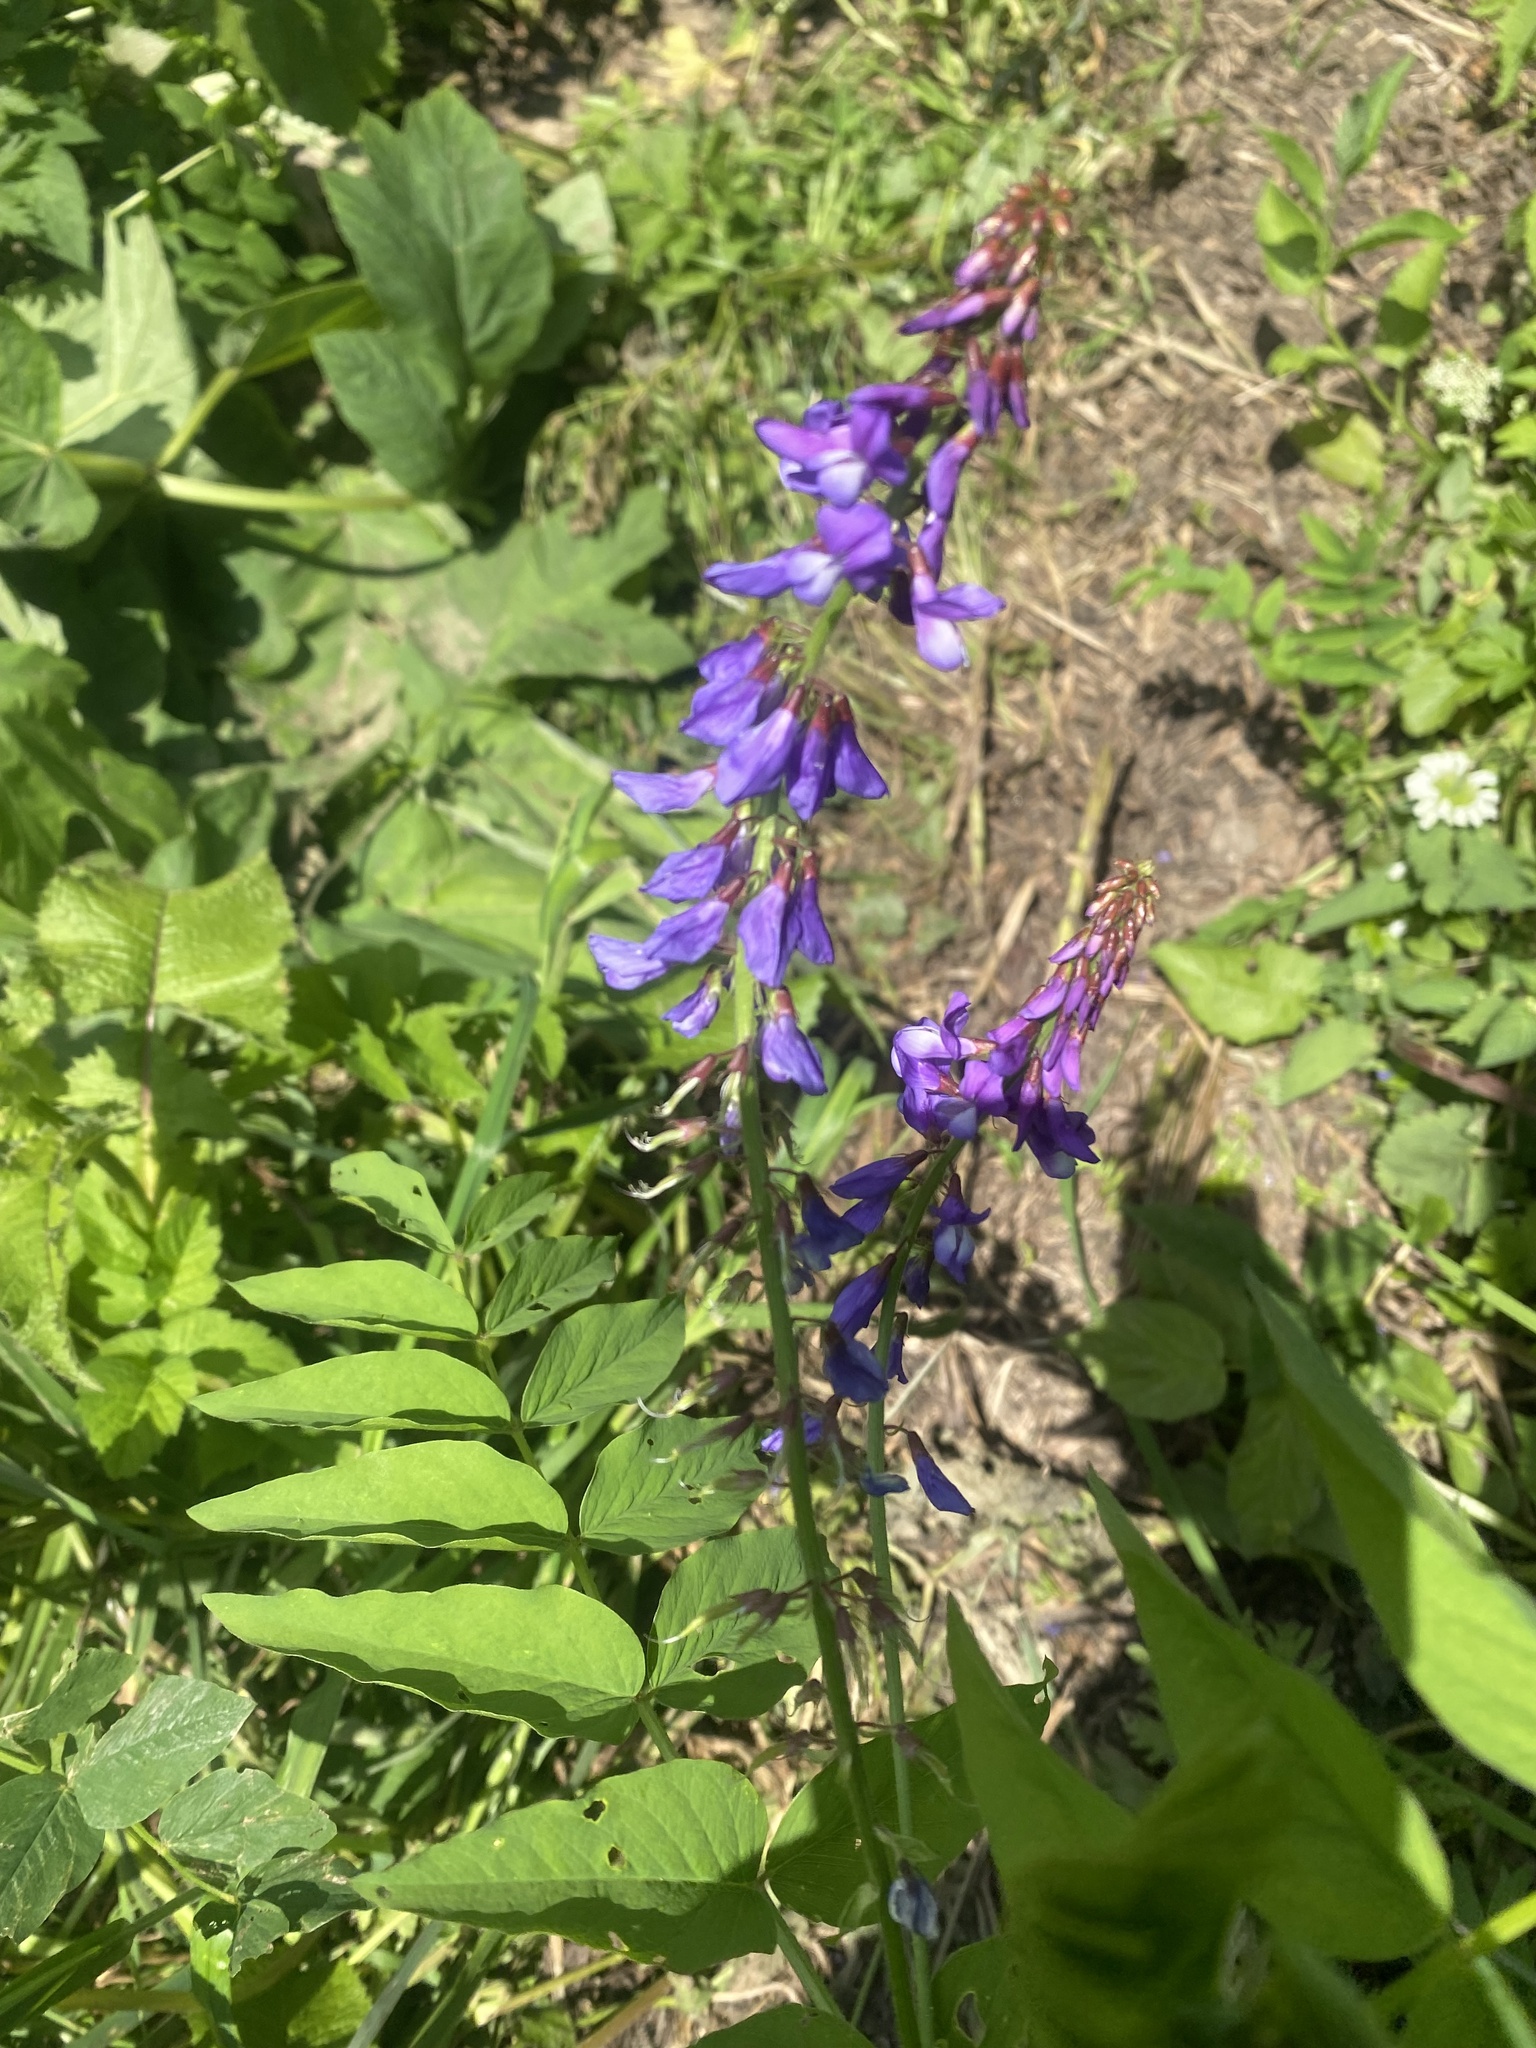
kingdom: Plantae
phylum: Tracheophyta
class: Magnoliopsida
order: Fabales
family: Fabaceae
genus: Galega
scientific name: Galega orientalis
